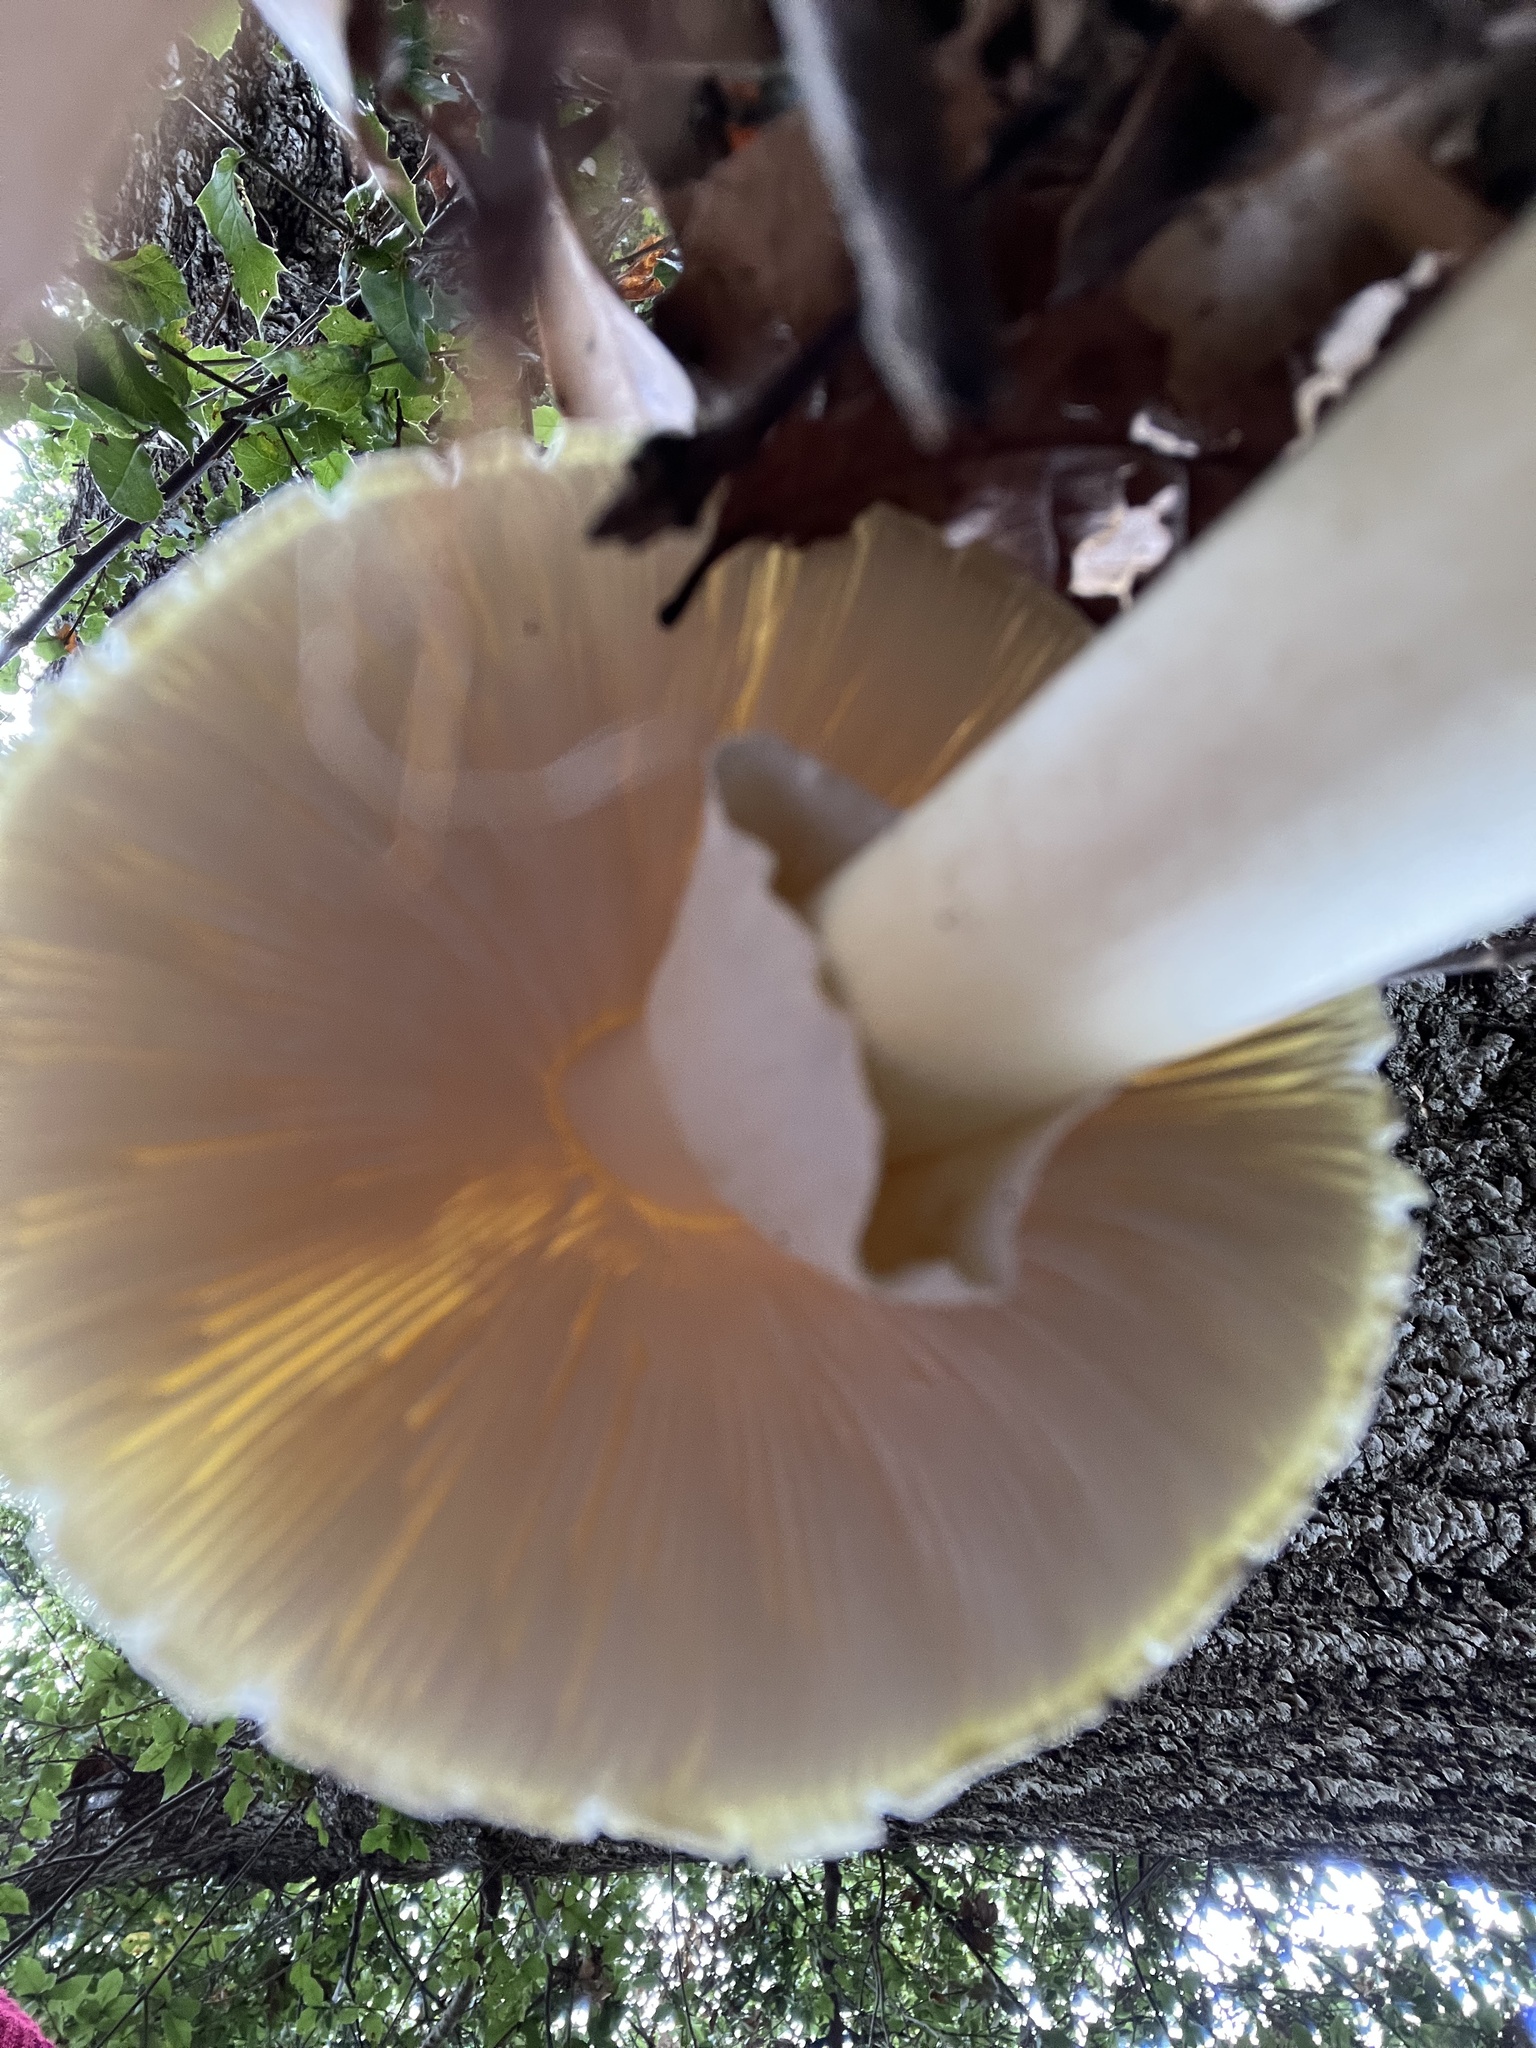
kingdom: Fungi
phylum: Basidiomycota
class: Agaricomycetes
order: Agaricales
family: Amanitaceae
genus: Amanita
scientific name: Amanita phalloides
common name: Death cap
